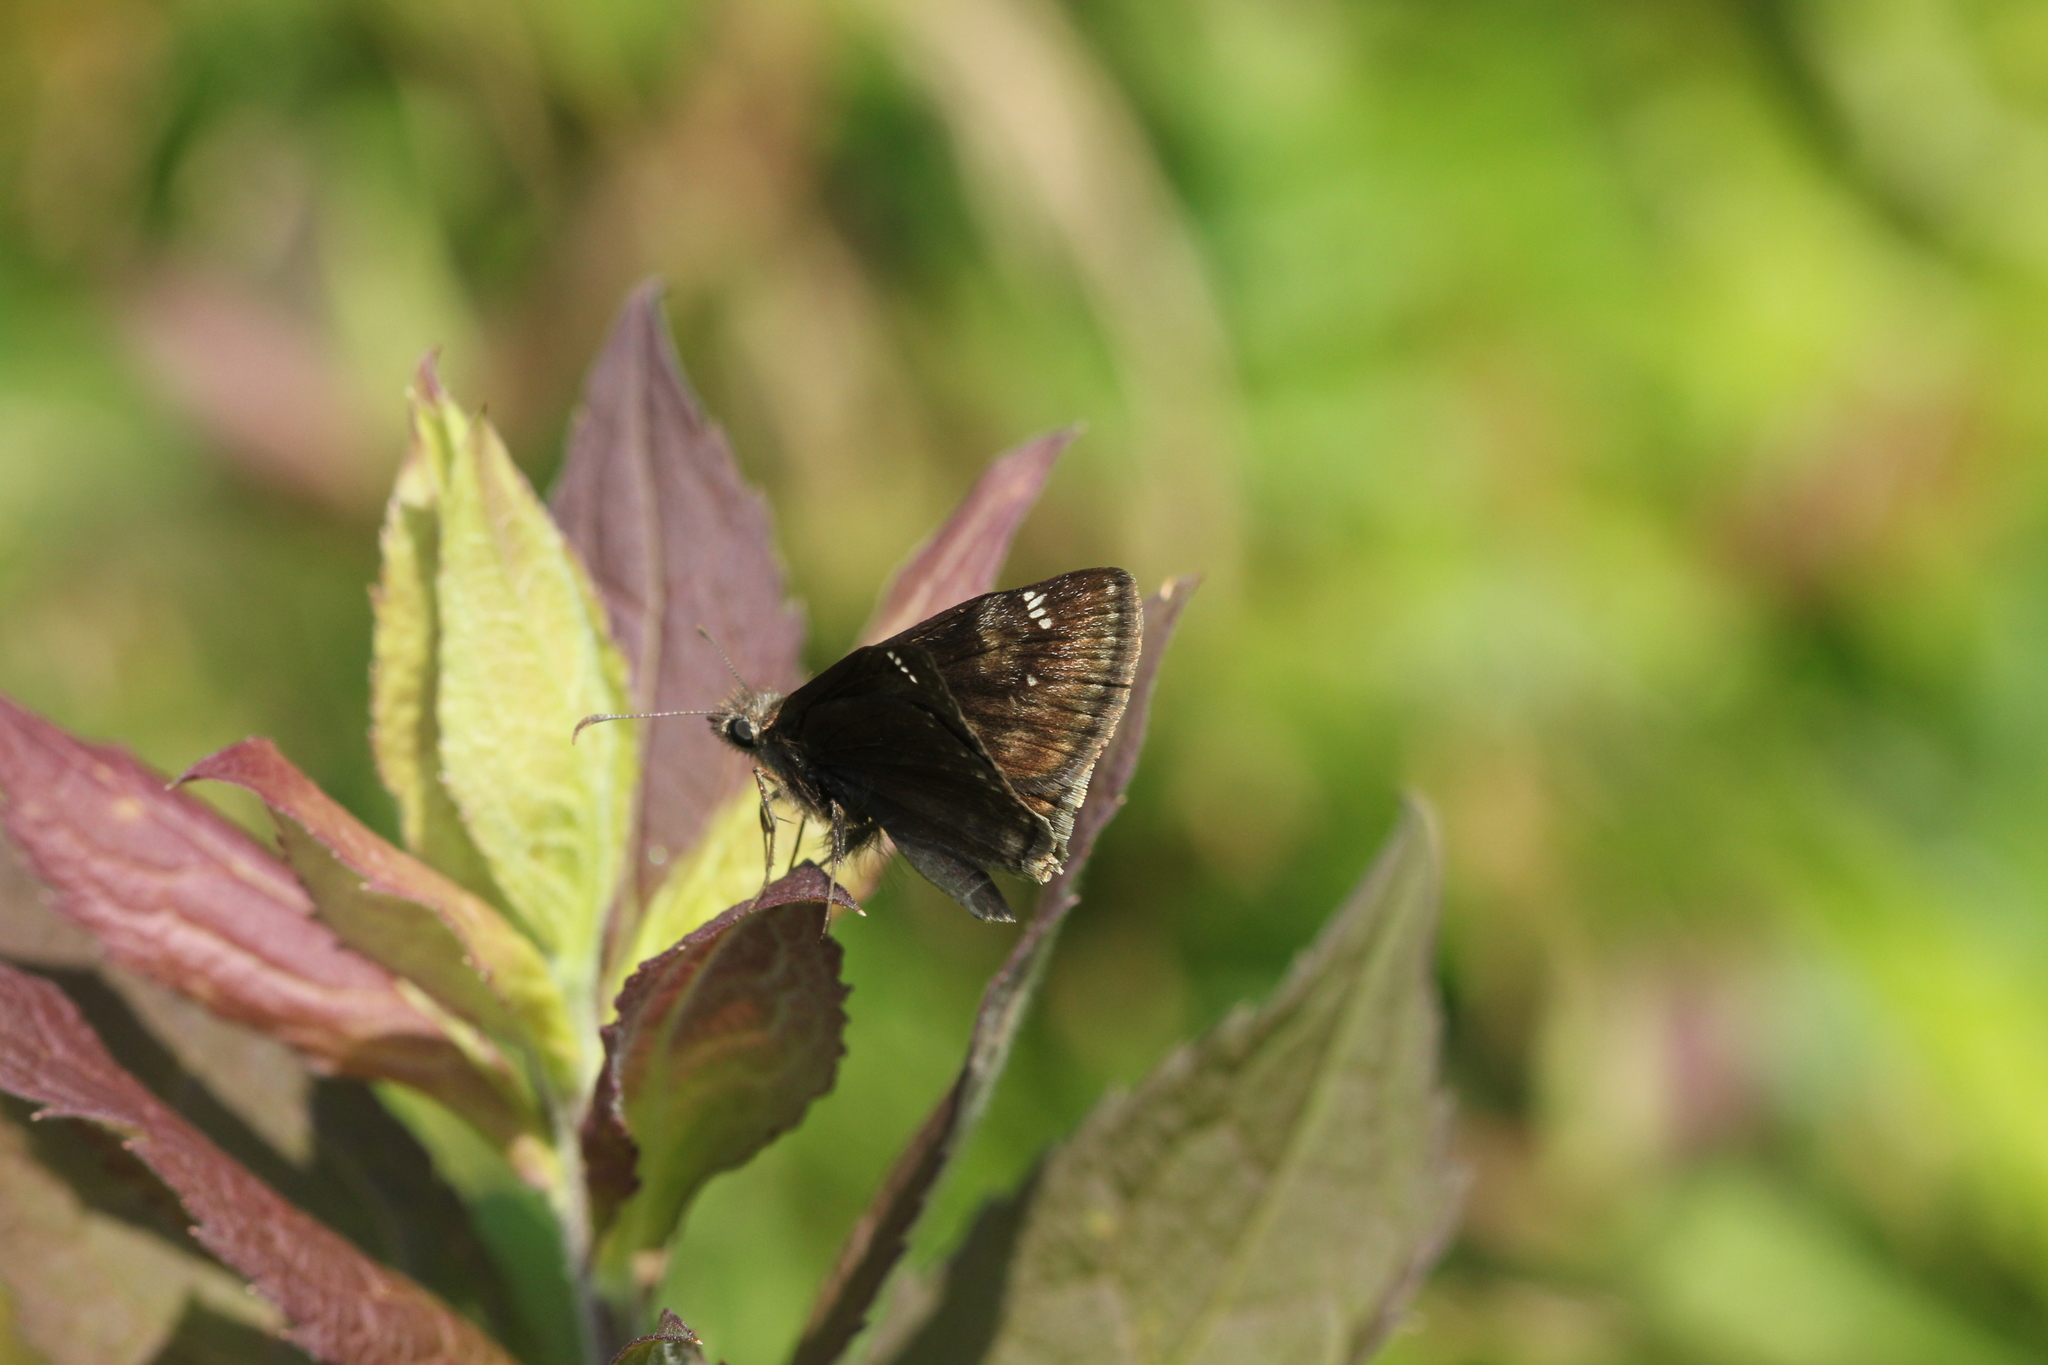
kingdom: Animalia
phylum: Arthropoda
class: Insecta
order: Lepidoptera
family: Hesperiidae
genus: Erynnis
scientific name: Erynnis baptisiae
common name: Wild indigo duskywing
